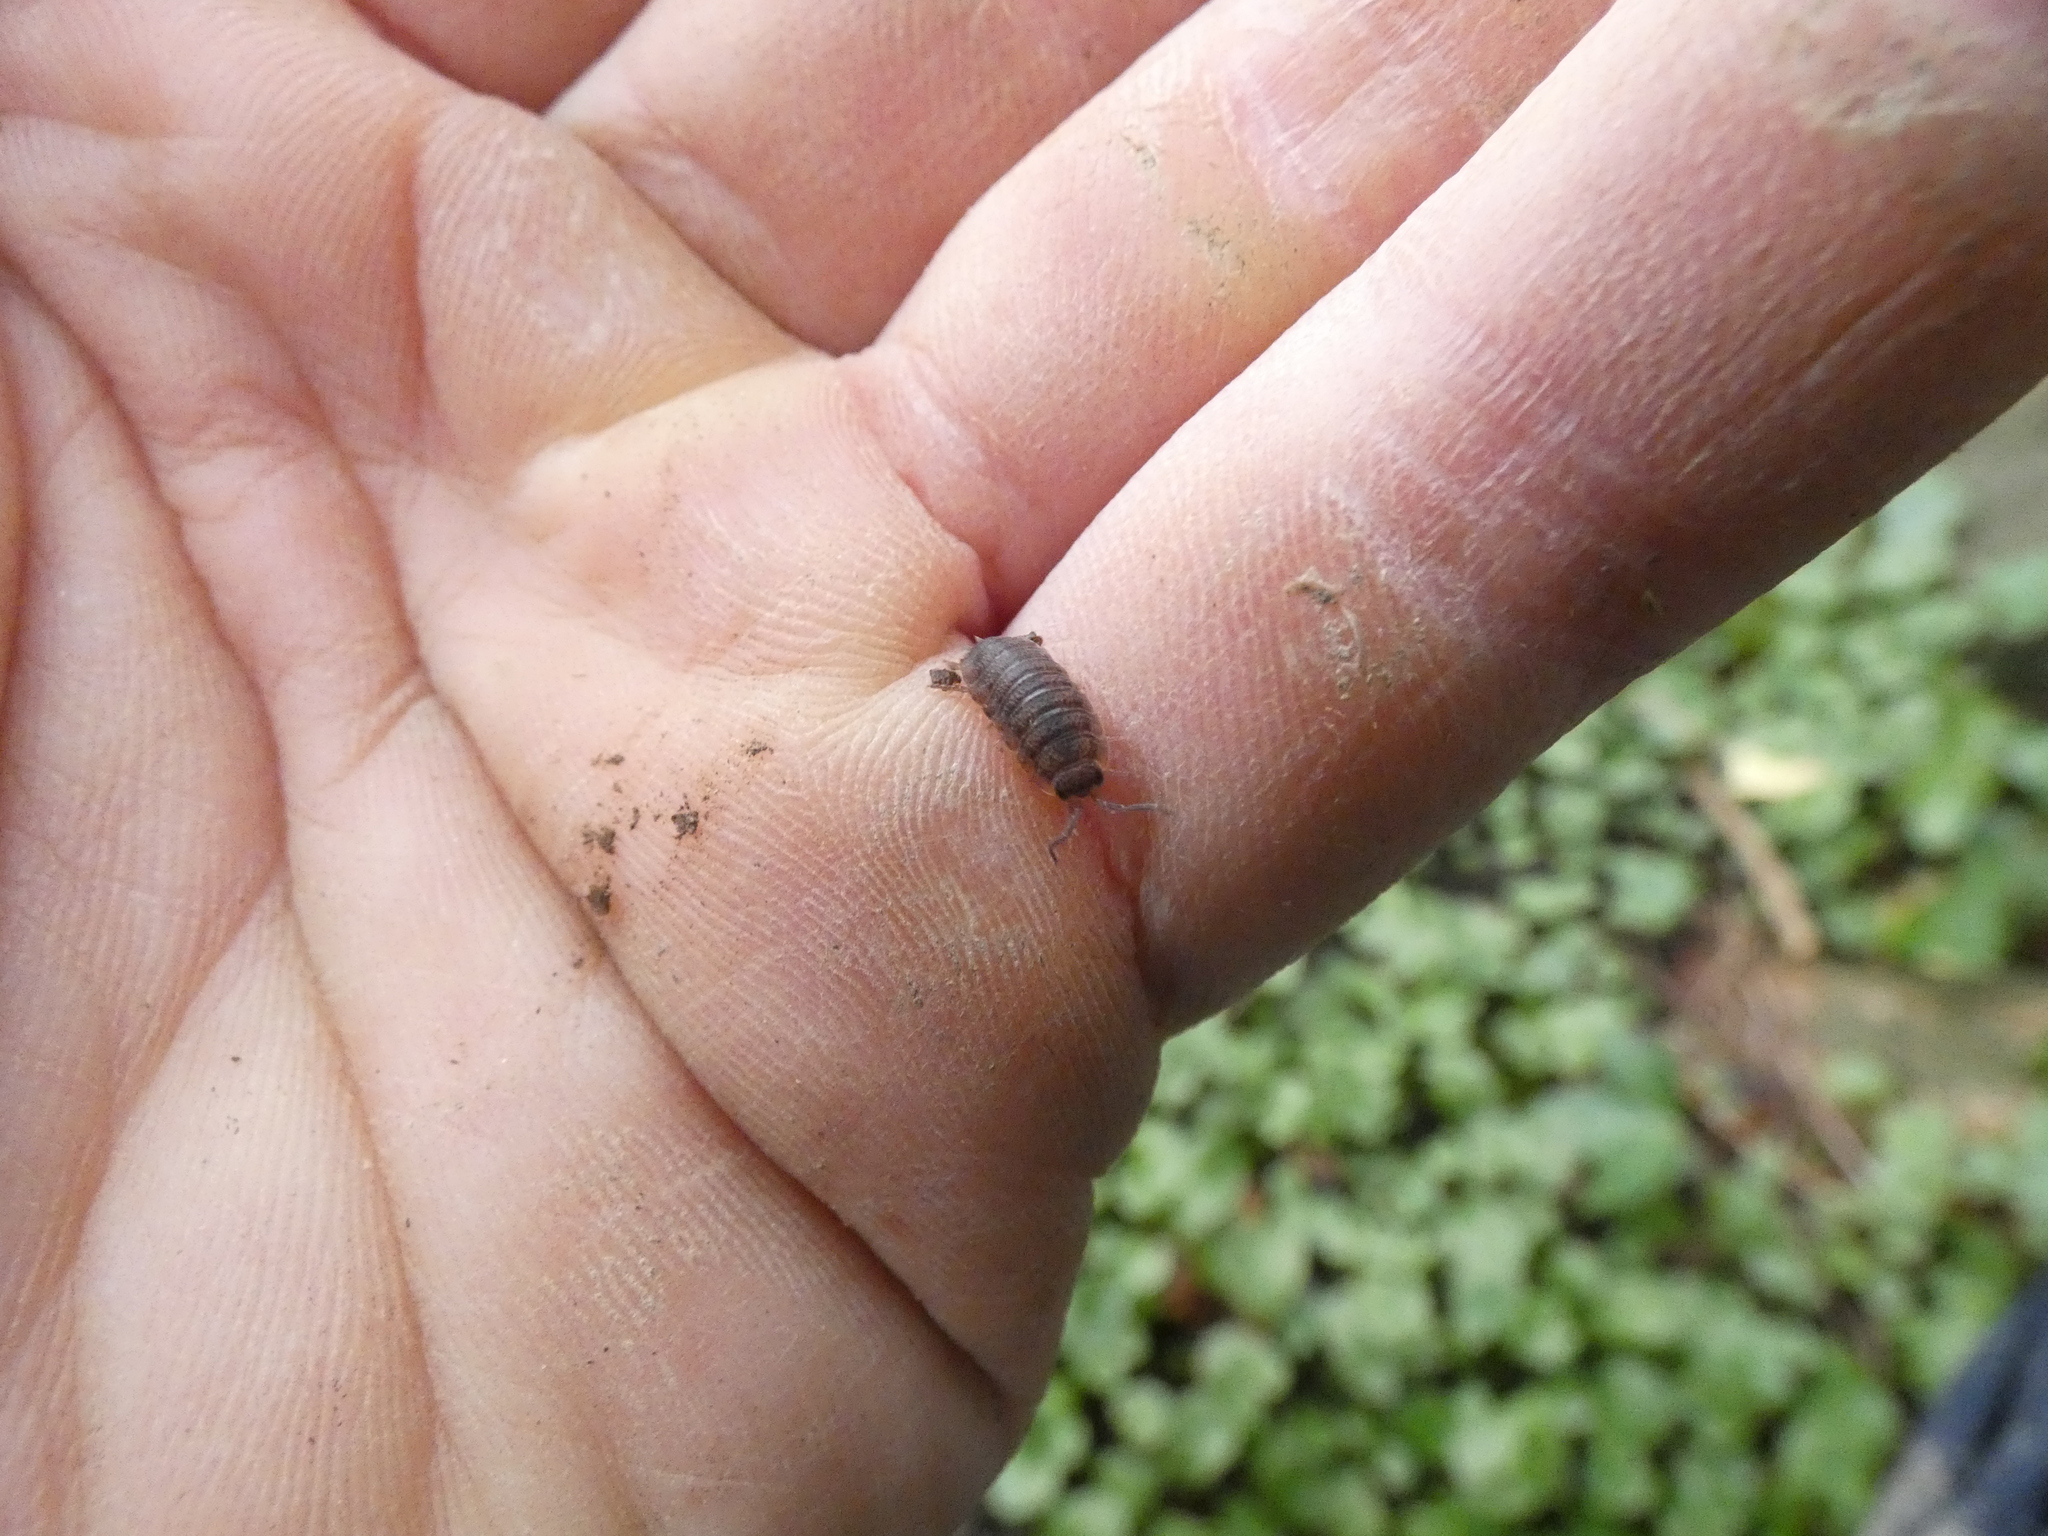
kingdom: Animalia
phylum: Arthropoda
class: Malacostraca
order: Isopoda
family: Porcellionidae
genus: Porcellio
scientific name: Porcellio scaber
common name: Common rough woodlouse
